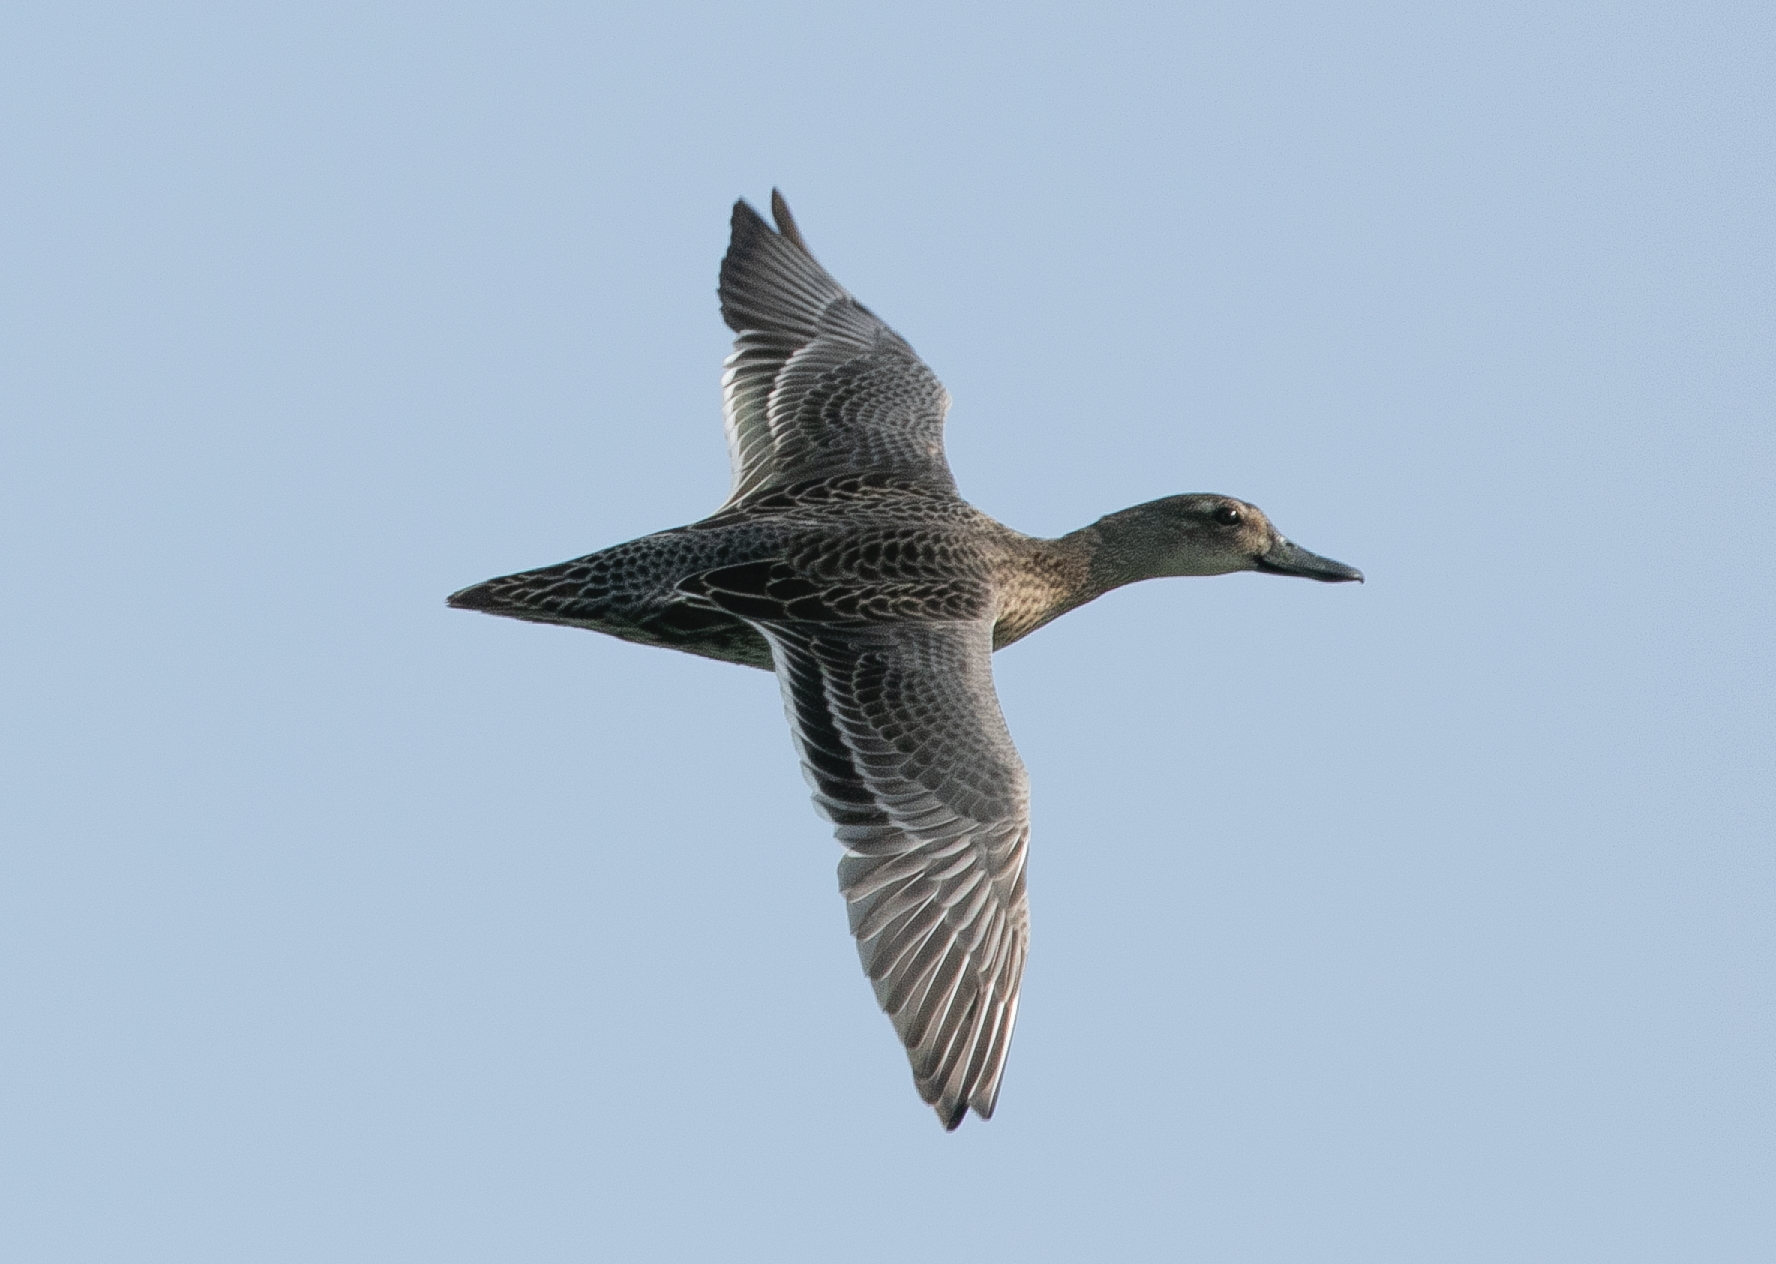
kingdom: Animalia
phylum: Chordata
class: Aves
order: Anseriformes
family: Anatidae
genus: Spatula
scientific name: Spatula querquedula
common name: Garganey
